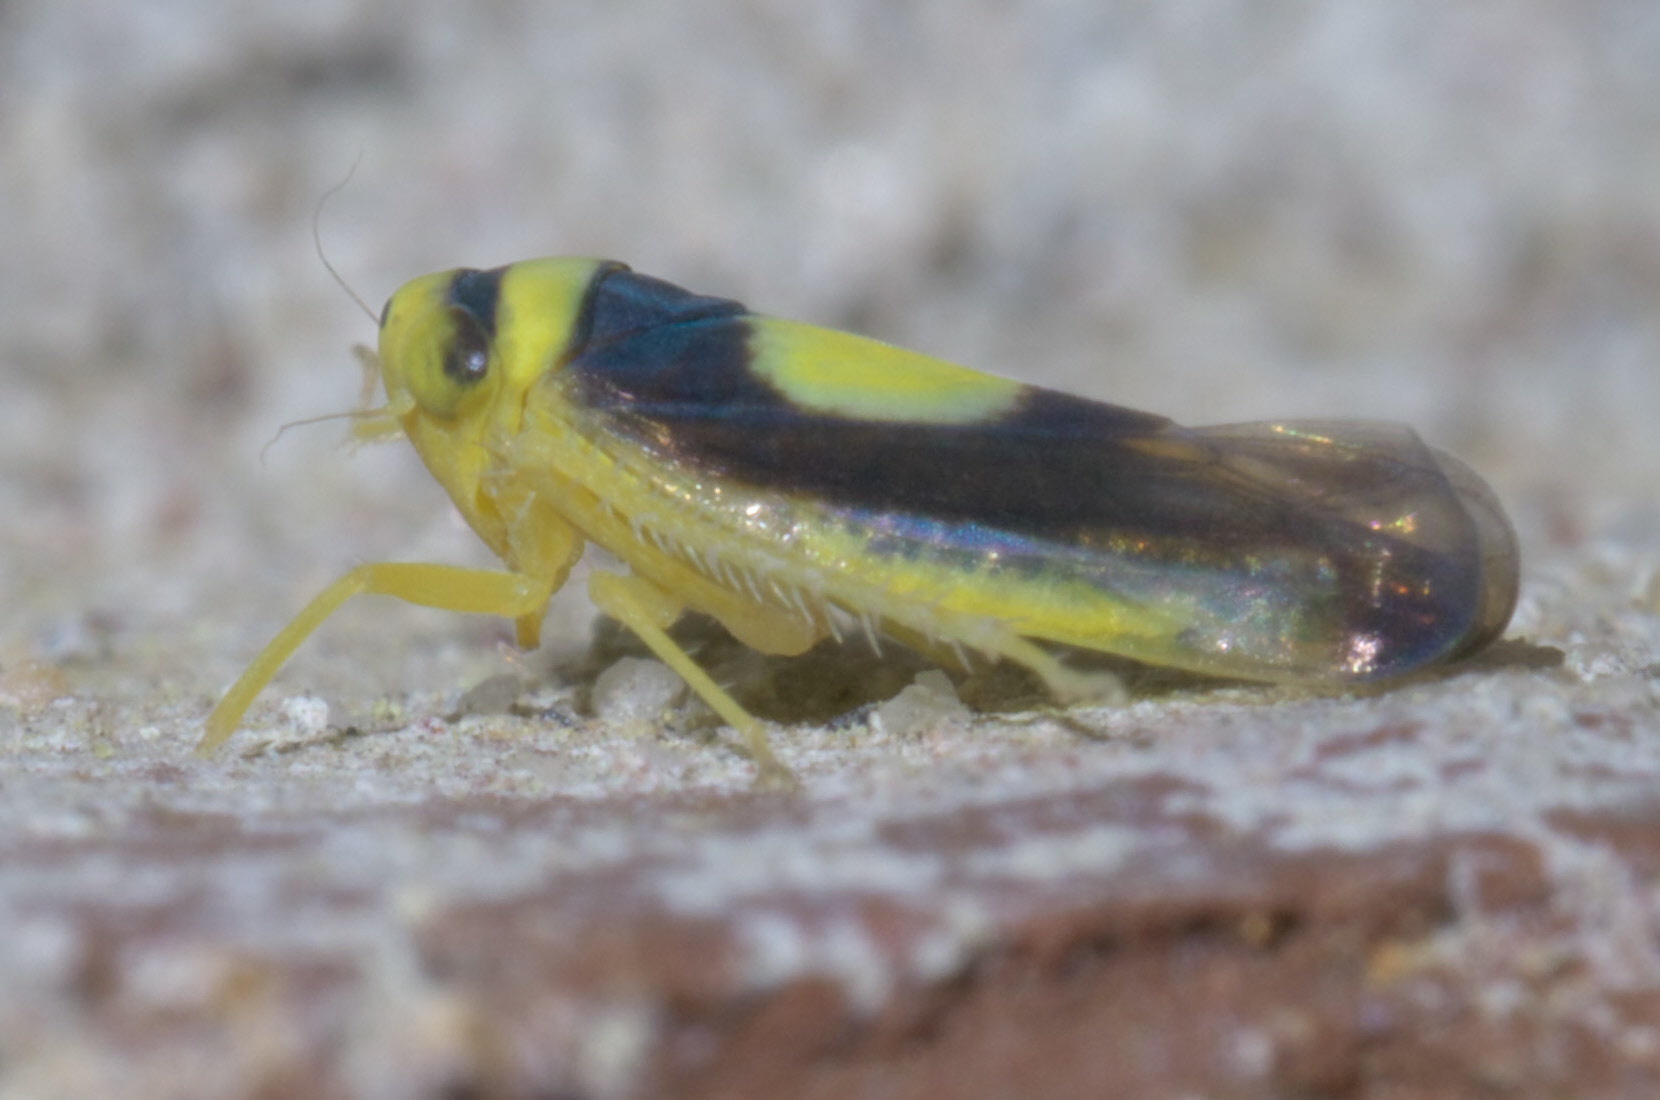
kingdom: Animalia
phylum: Arthropoda
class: Insecta
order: Hemiptera
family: Cicadellidae
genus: Colladonus
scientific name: Colladonus clitellarius
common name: The saddleback leafhopper
